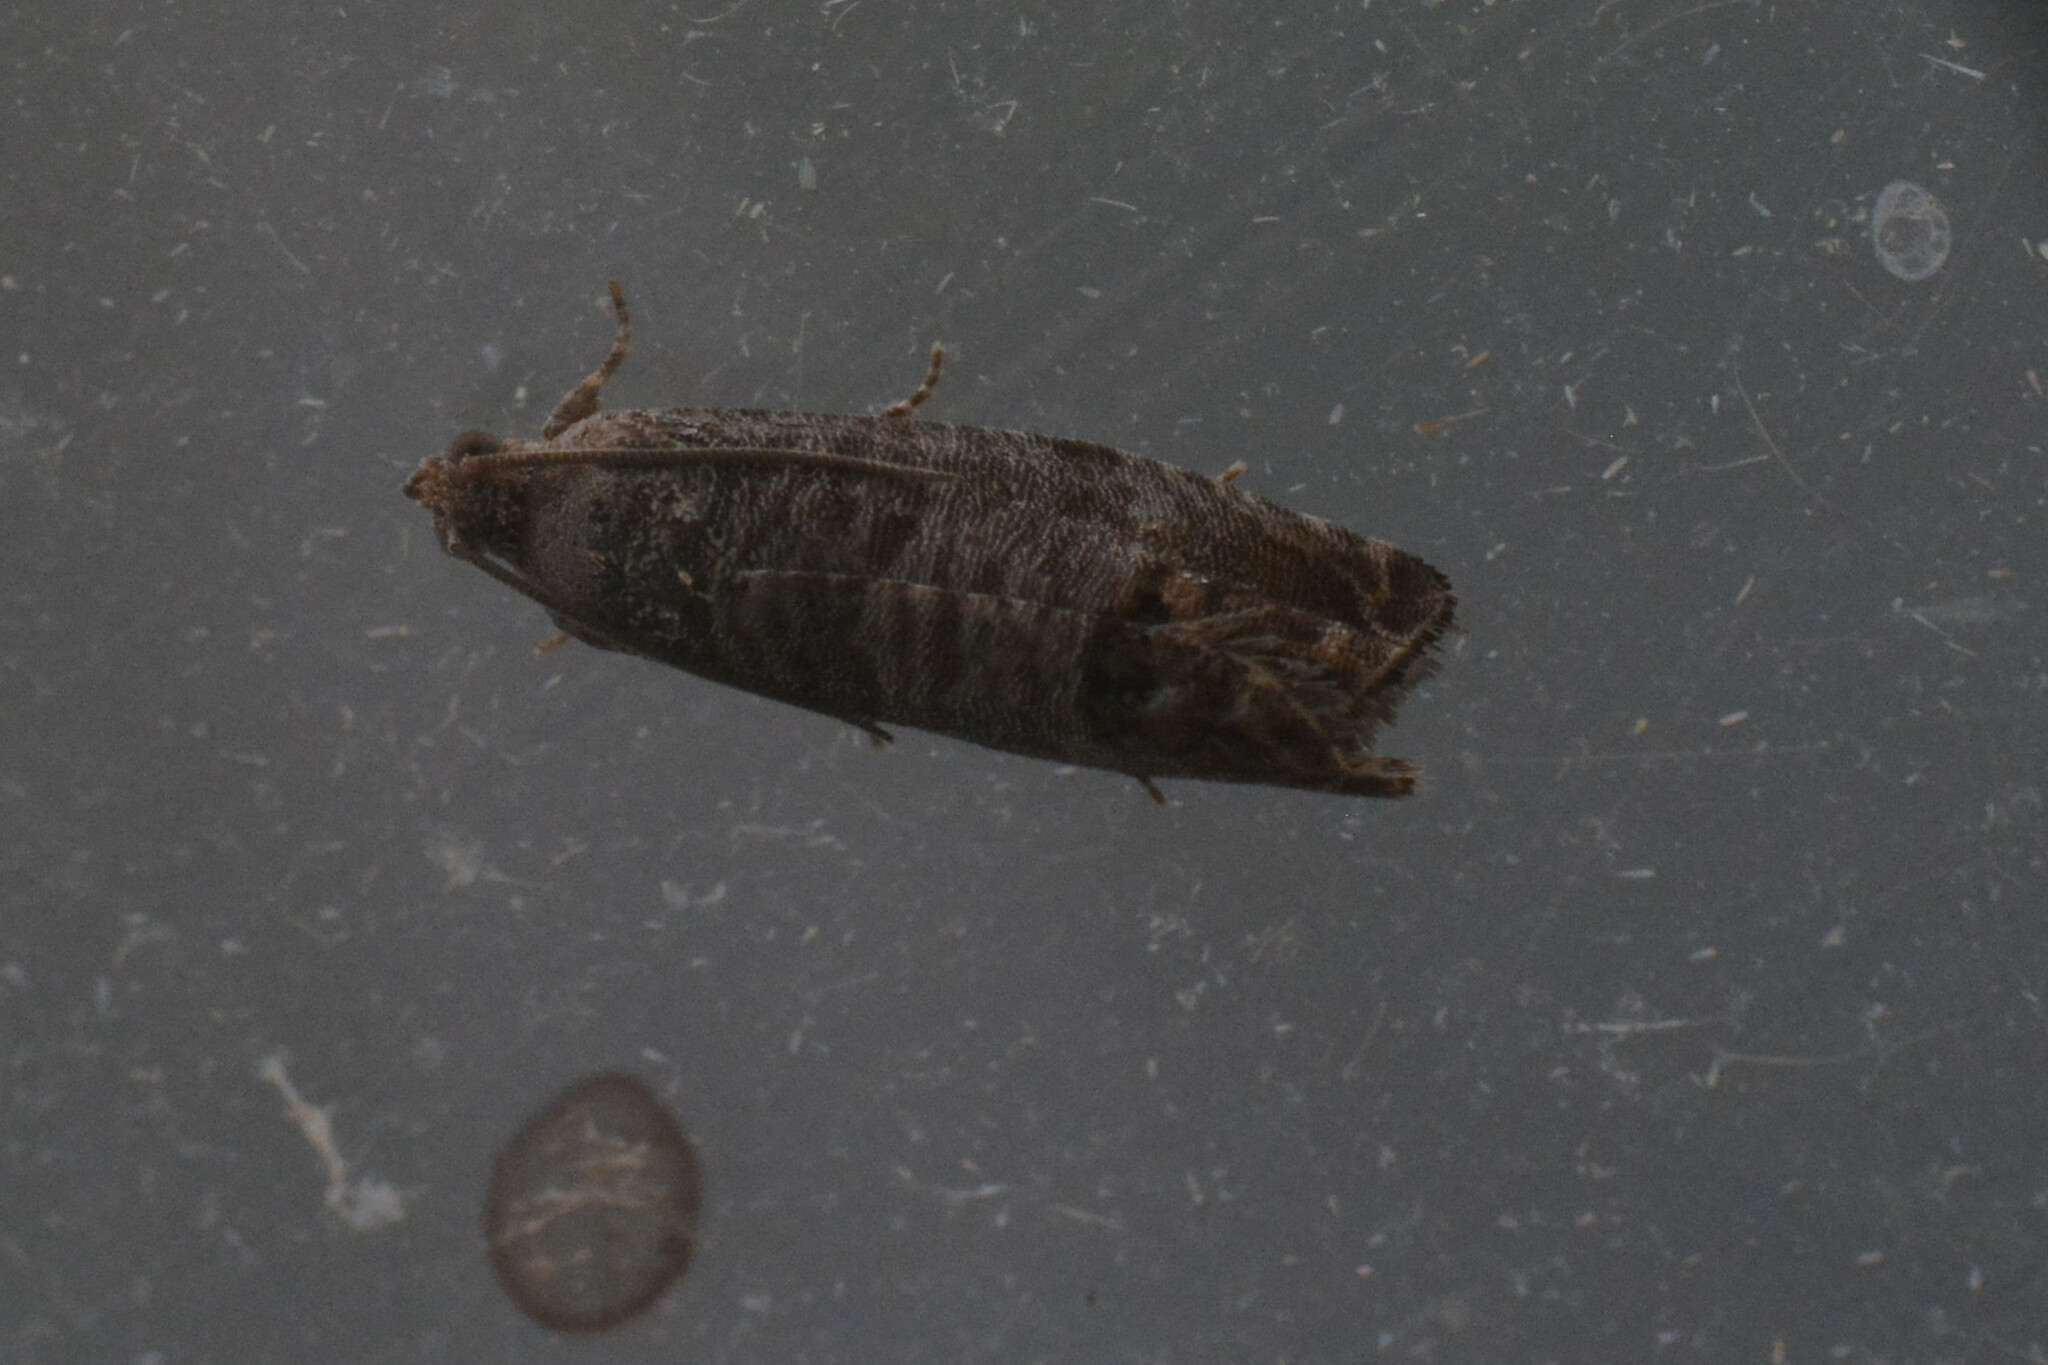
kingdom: Animalia
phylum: Arthropoda
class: Insecta
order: Lepidoptera
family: Tortricidae
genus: Cydia
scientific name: Cydia pomonella
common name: Codling moth
